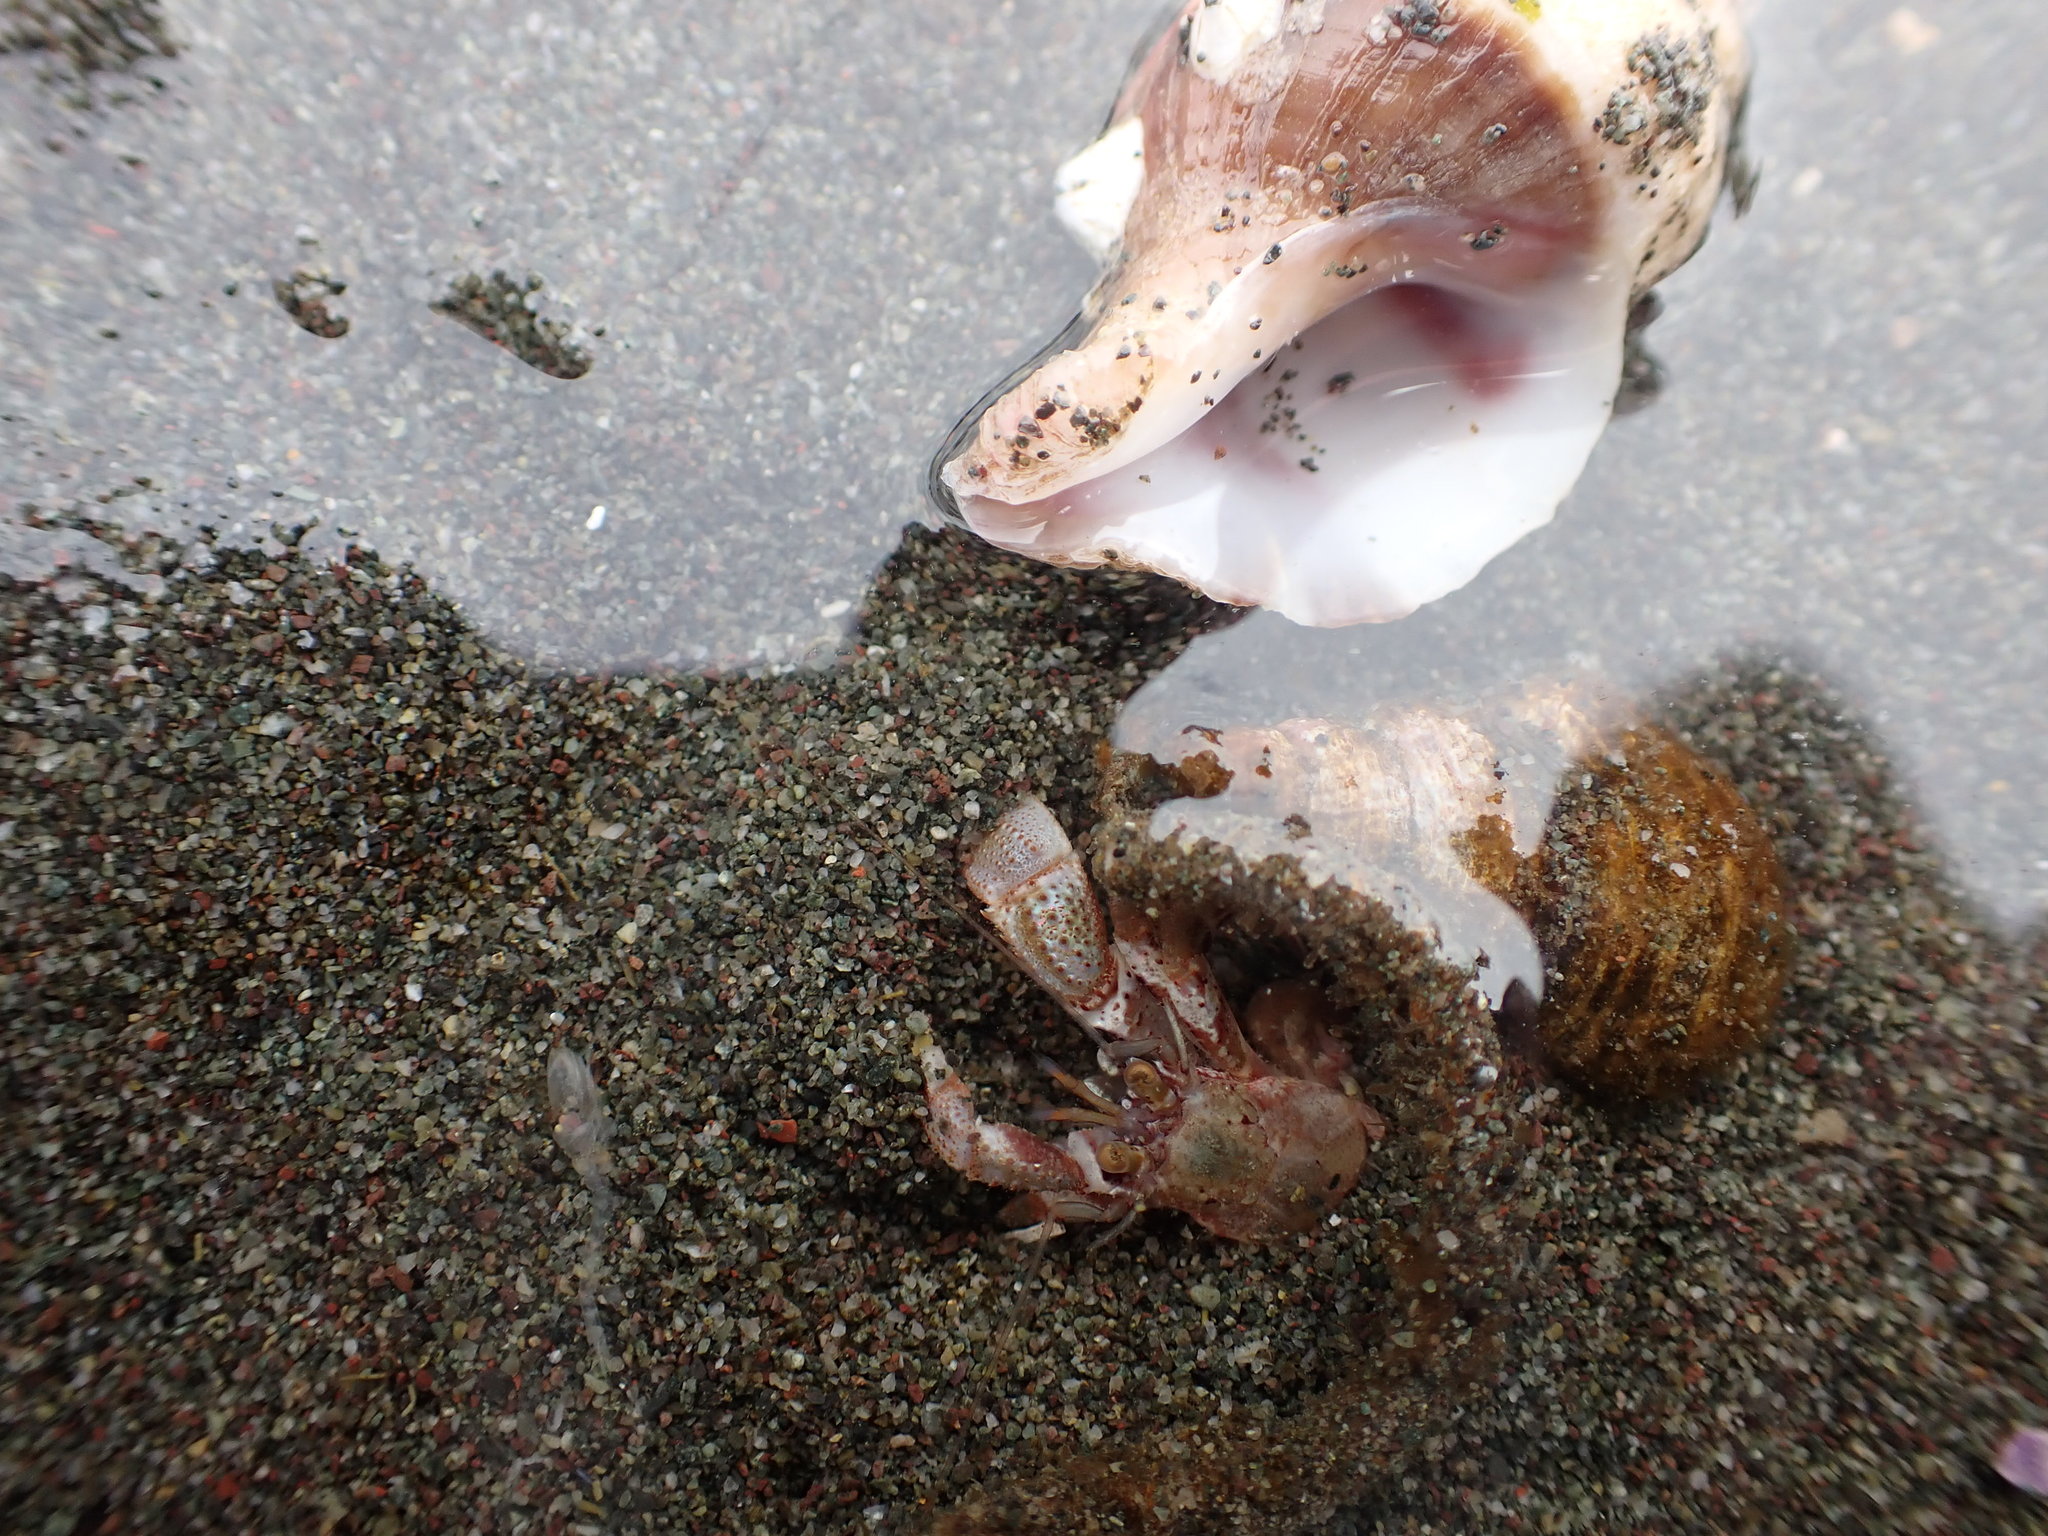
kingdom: Animalia
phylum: Arthropoda
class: Malacostraca
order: Decapoda
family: Paguridae
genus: Pagurus
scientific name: Pagurus ochotensis
